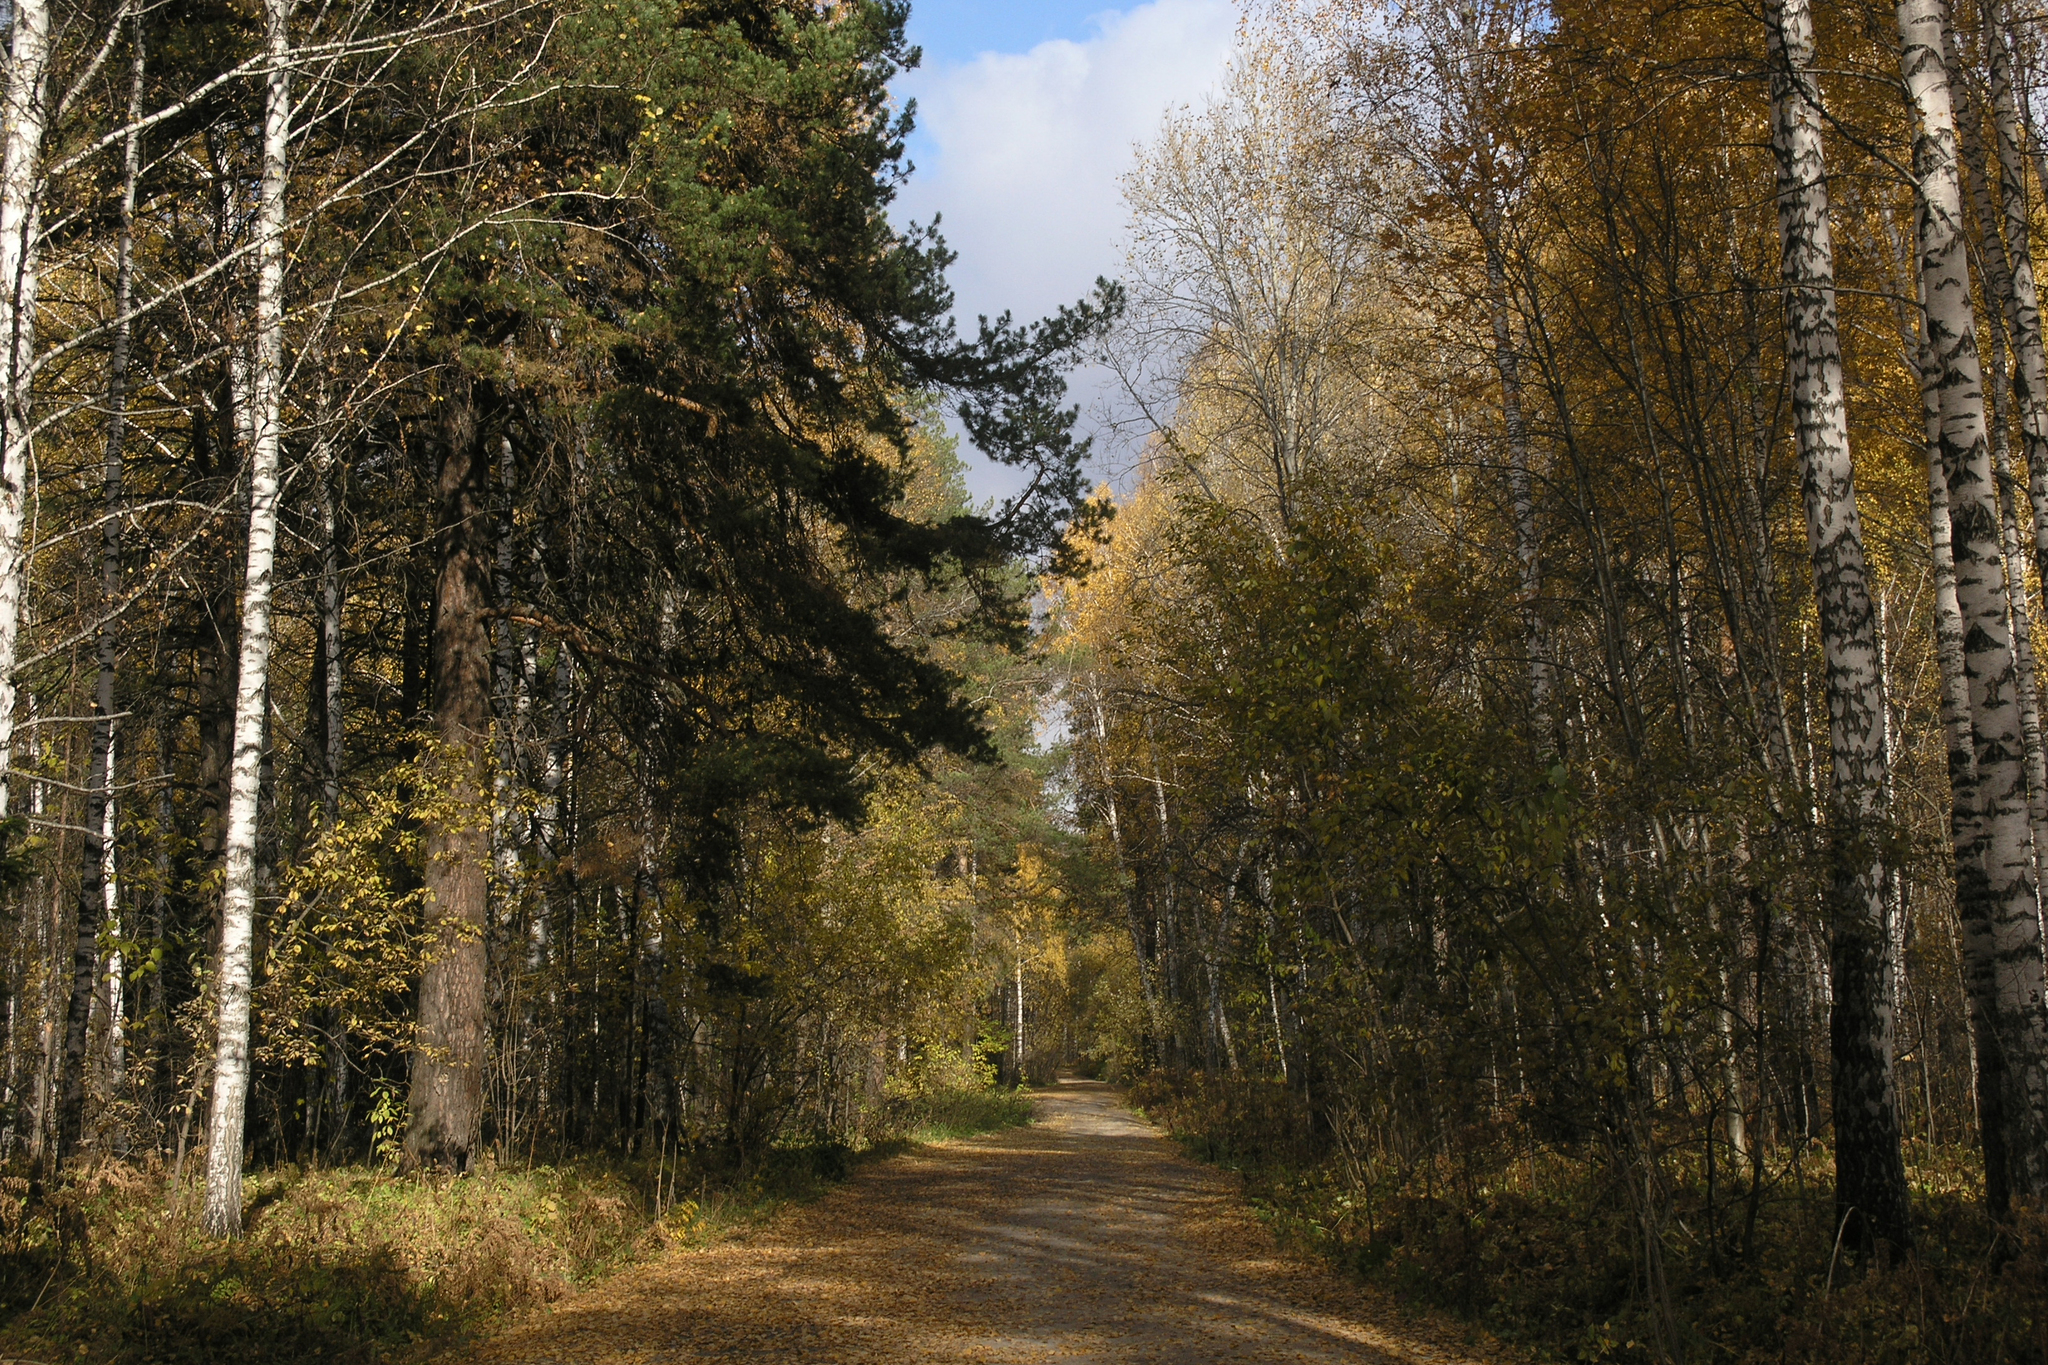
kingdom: Plantae
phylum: Tracheophyta
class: Magnoliopsida
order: Fagales
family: Betulaceae
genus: Betula
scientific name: Betula pendula
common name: Silver birch
